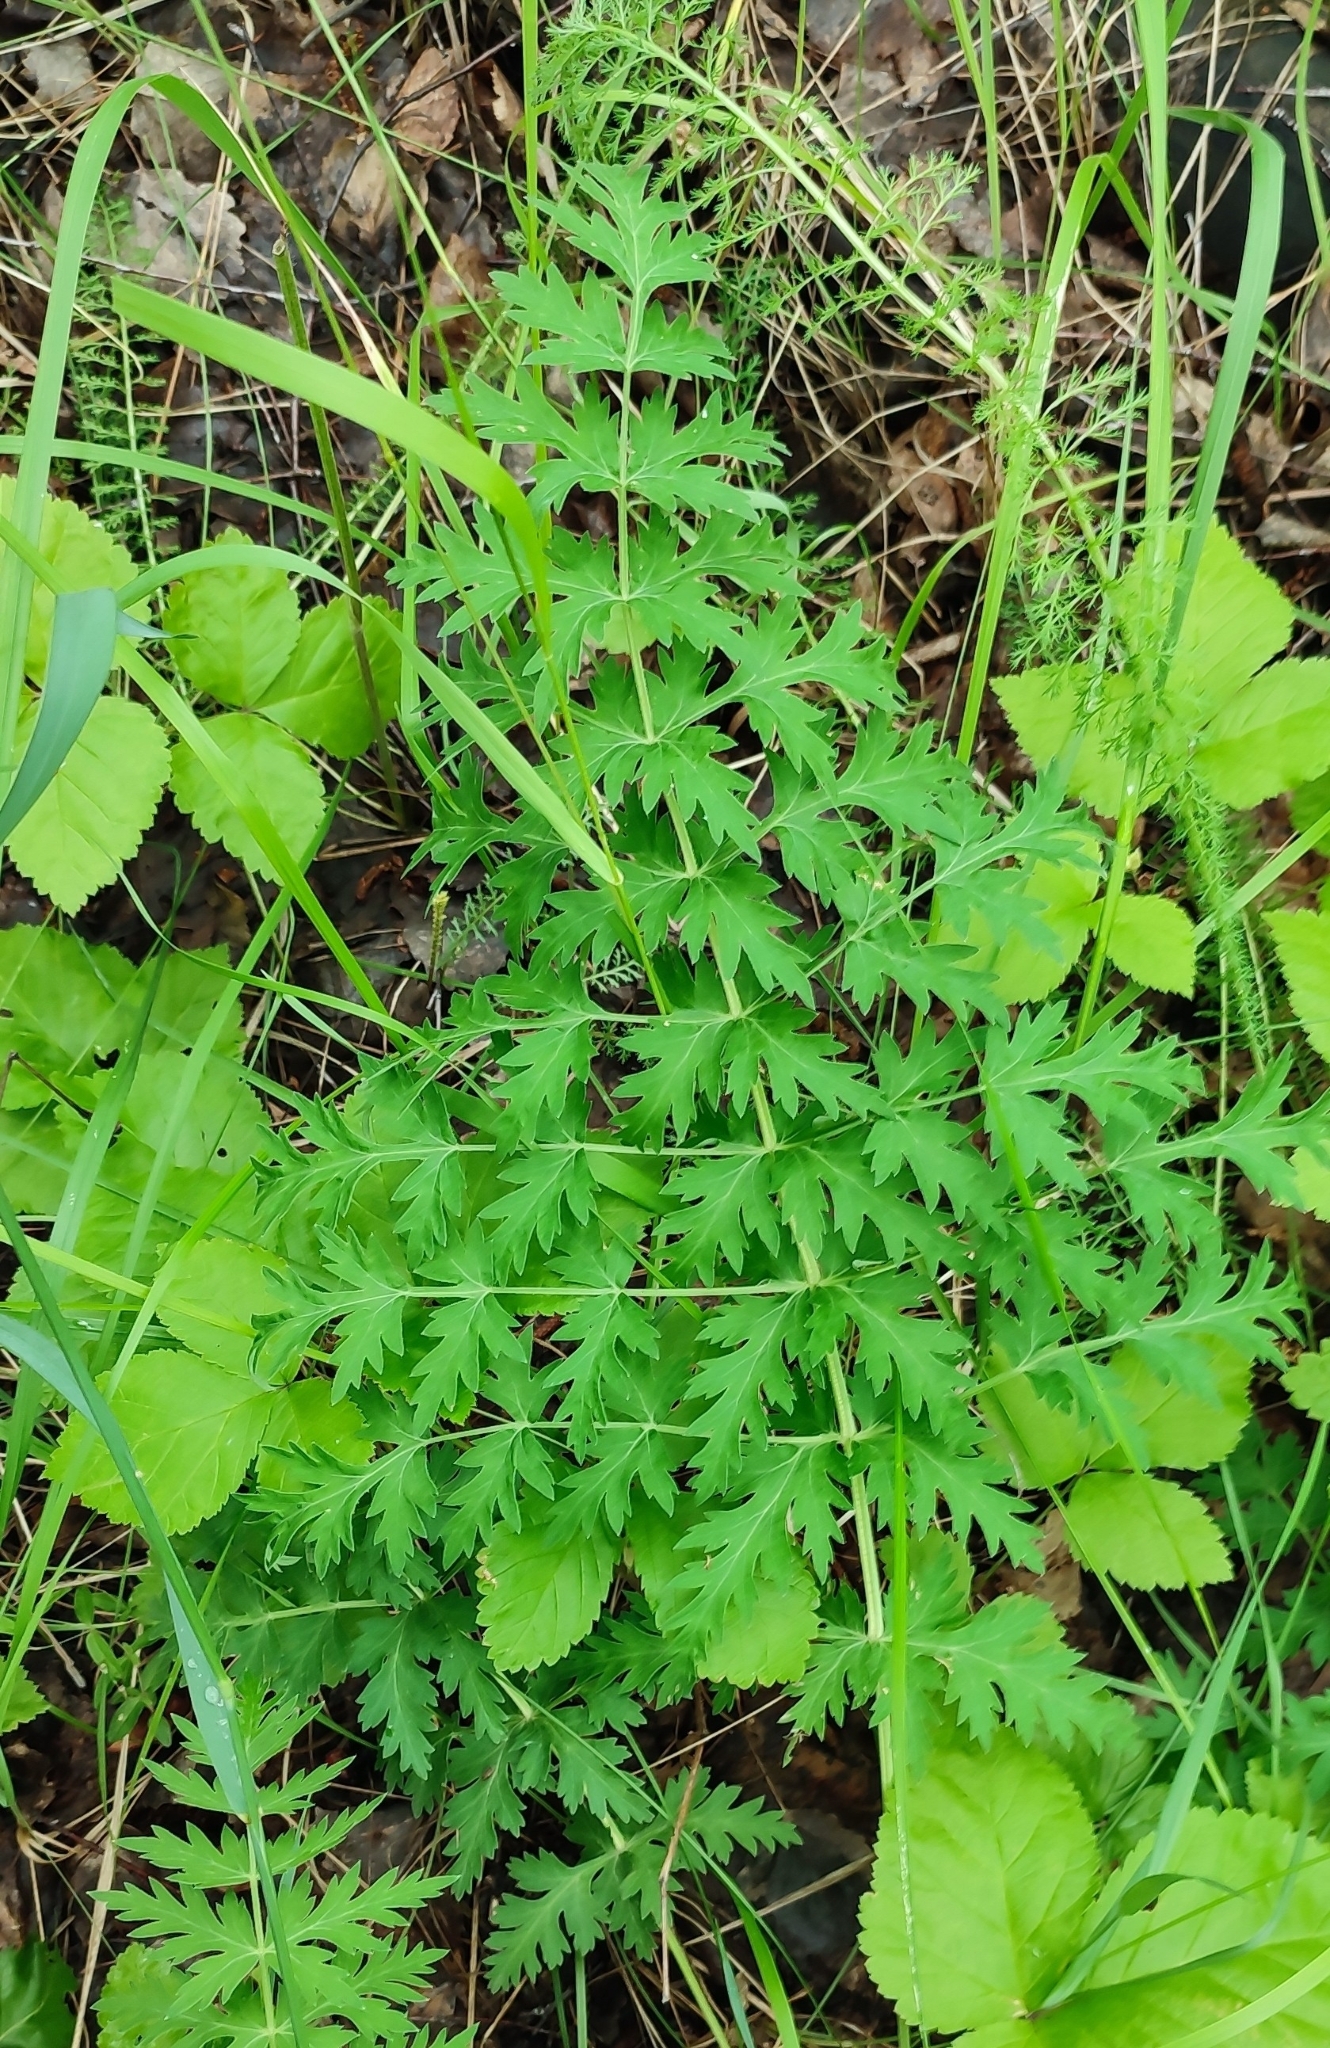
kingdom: Plantae
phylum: Tracheophyta
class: Magnoliopsida
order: Apiales
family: Apiaceae
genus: Seseli
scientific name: Seseli libanotis
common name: Mooncarrot
